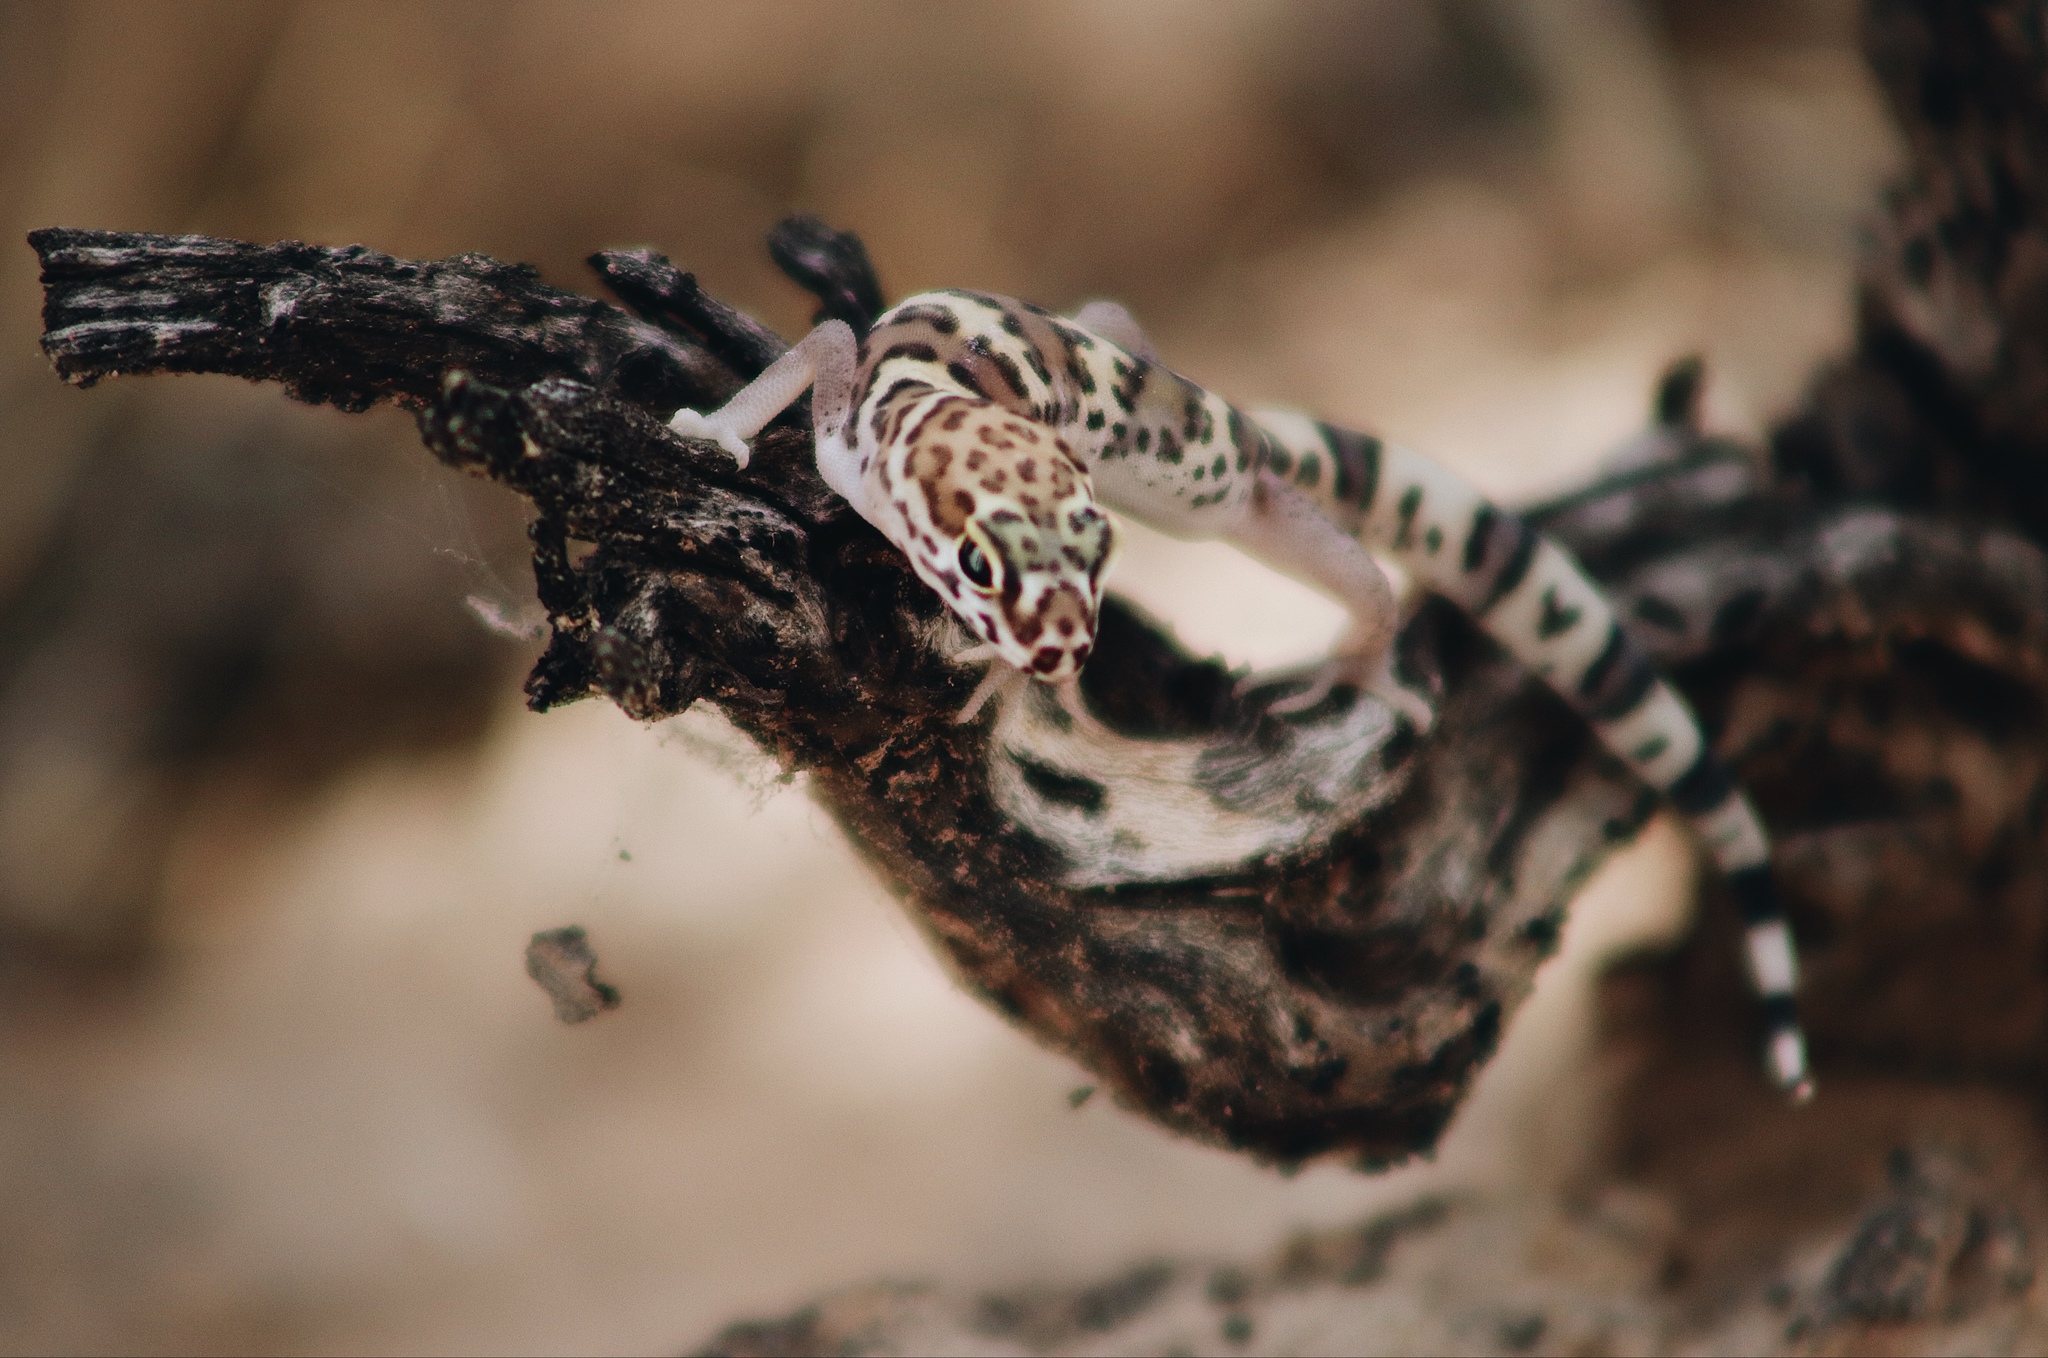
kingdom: Animalia
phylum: Chordata
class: Squamata
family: Eublepharidae
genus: Coleonyx
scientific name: Coleonyx brevis
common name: Texas banded gecko
